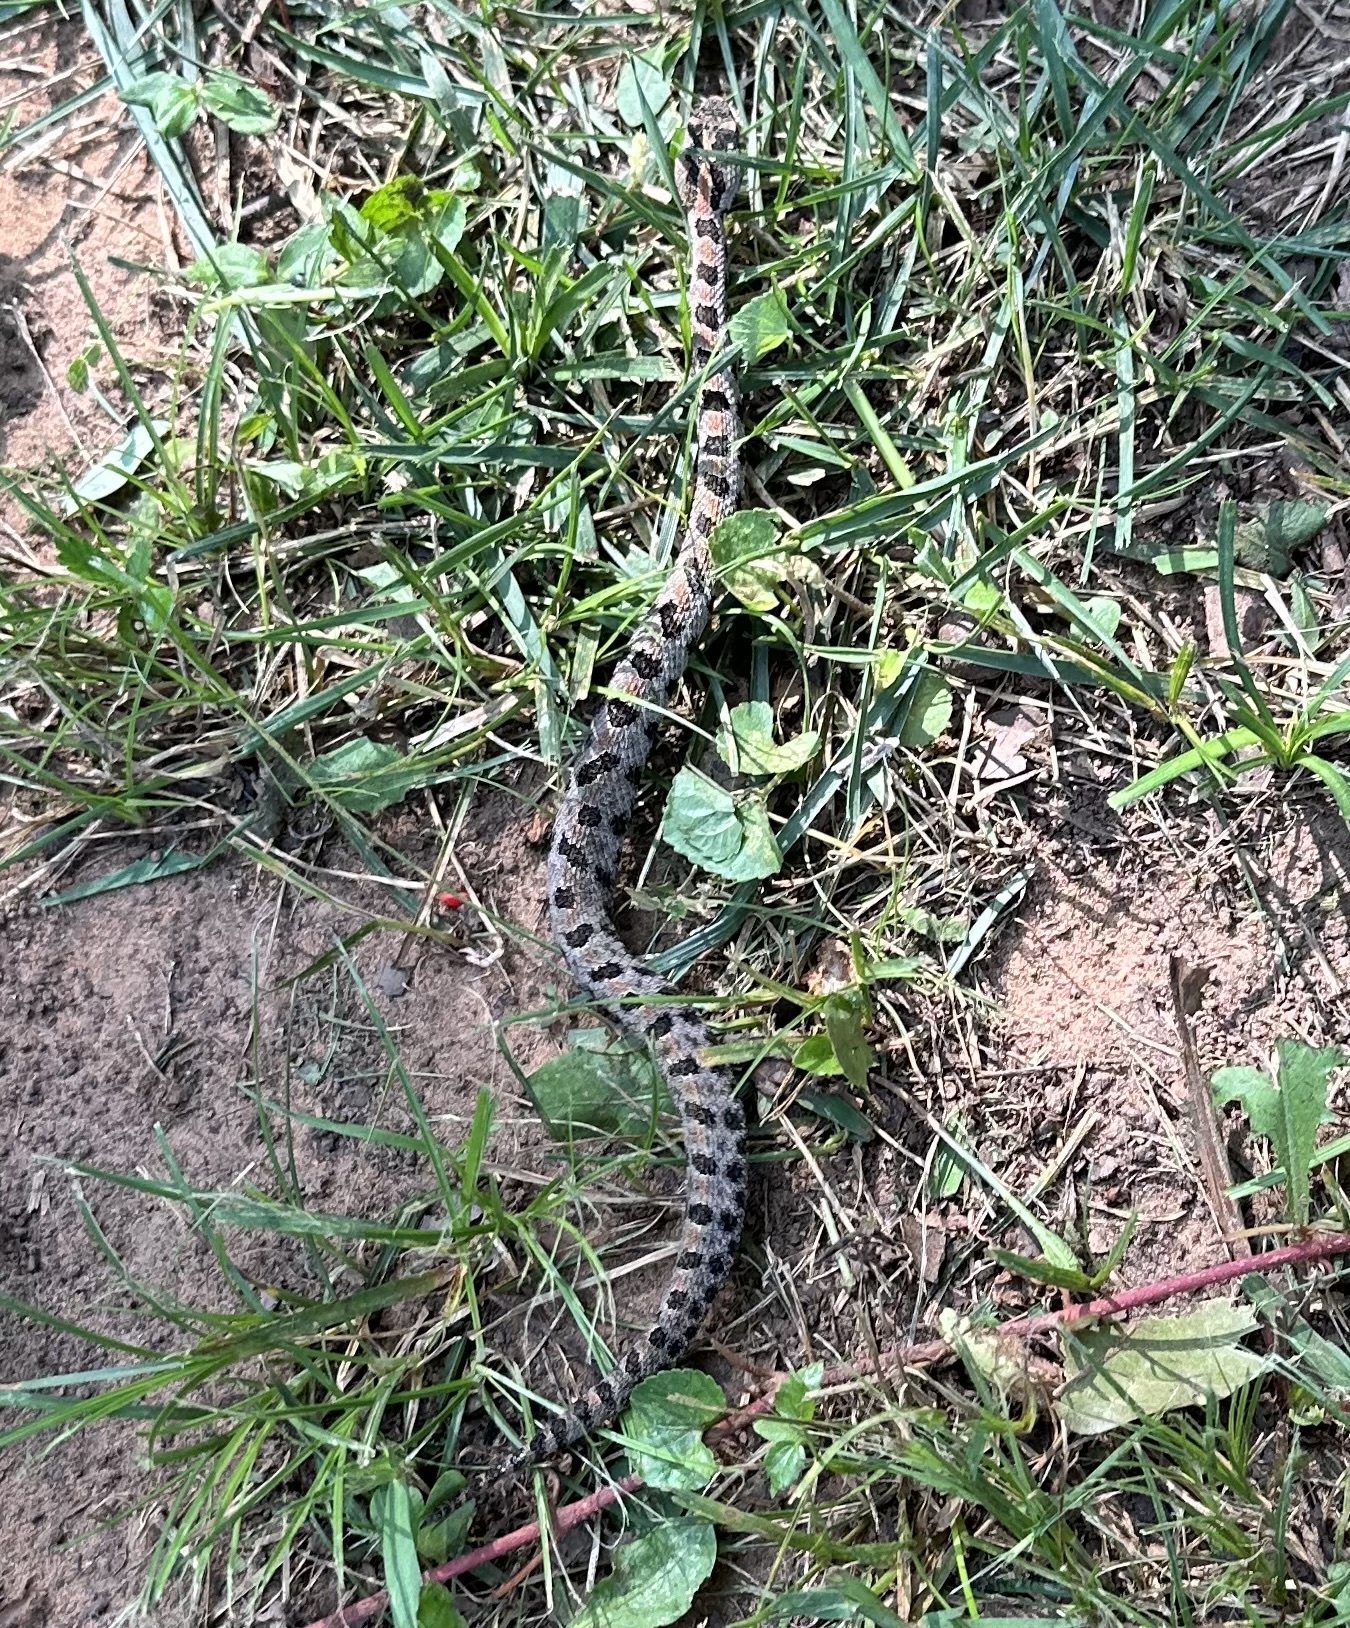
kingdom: Animalia
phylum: Chordata
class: Squamata
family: Viperidae
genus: Sistrurus
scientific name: Sistrurus miliarius
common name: Pygmy rattlesnake
